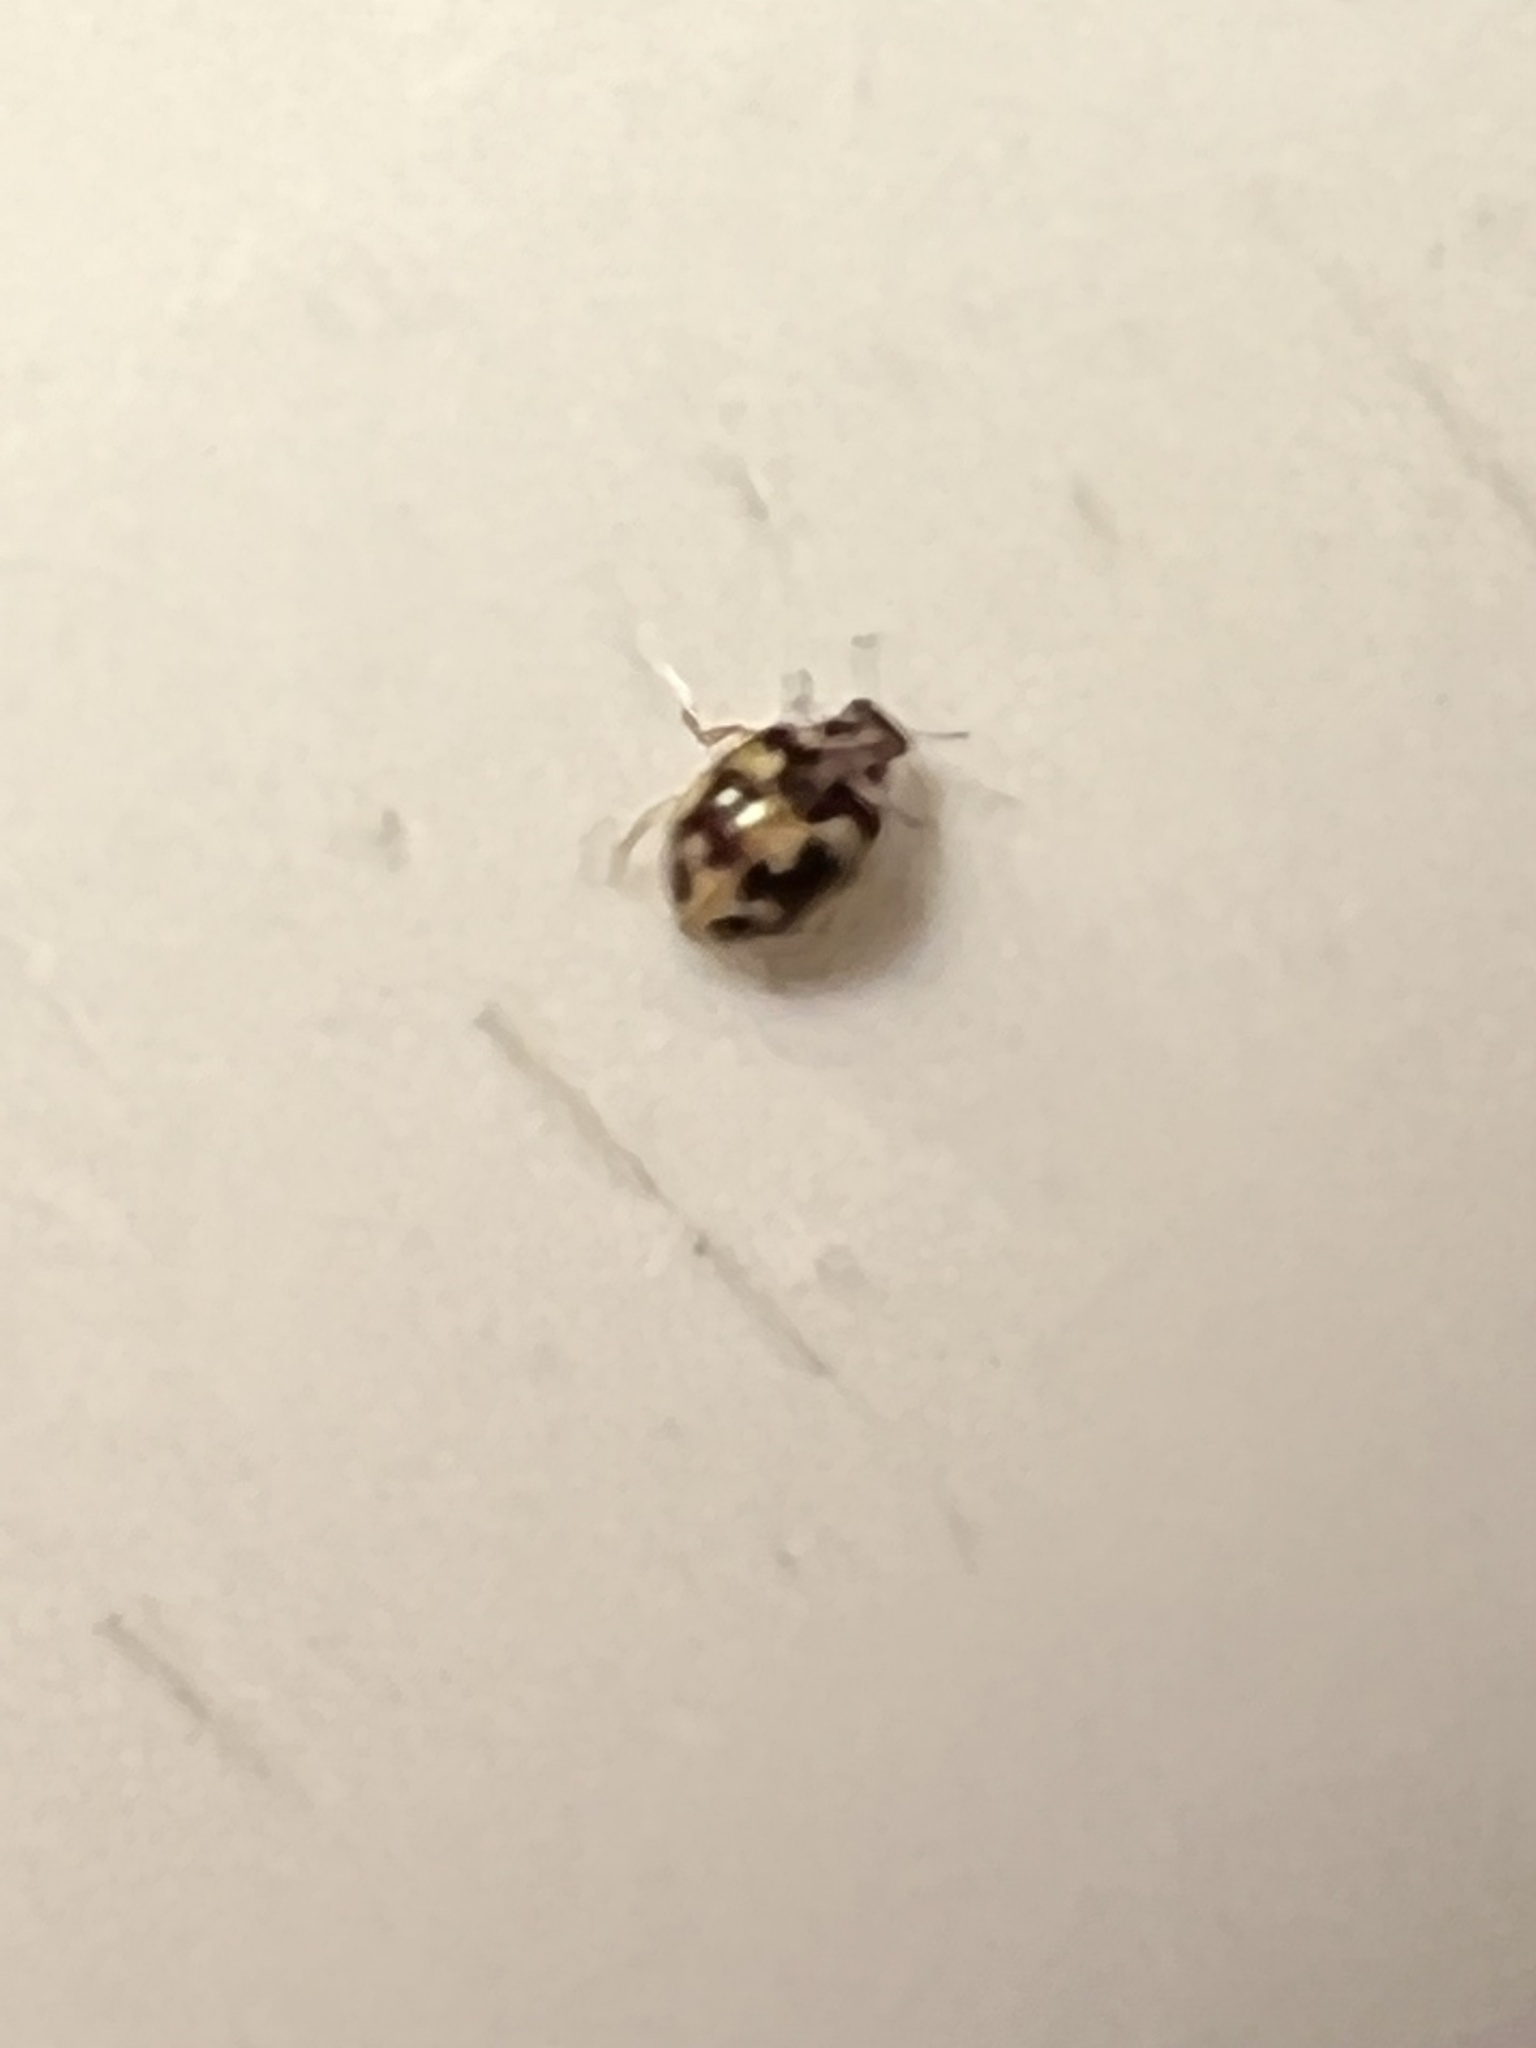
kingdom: Animalia
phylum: Arthropoda
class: Insecta
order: Coleoptera
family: Coccinellidae
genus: Psyllobora
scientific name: Psyllobora vigintimaculata
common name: Ladybird beetle
